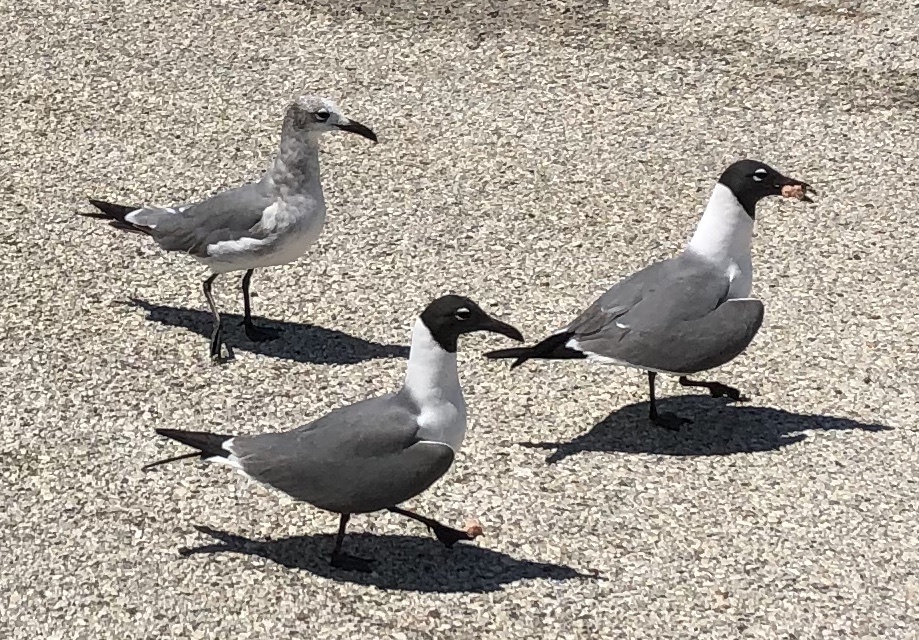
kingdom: Animalia
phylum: Chordata
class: Aves
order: Charadriiformes
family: Laridae
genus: Leucophaeus
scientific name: Leucophaeus atricilla
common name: Laughing gull
